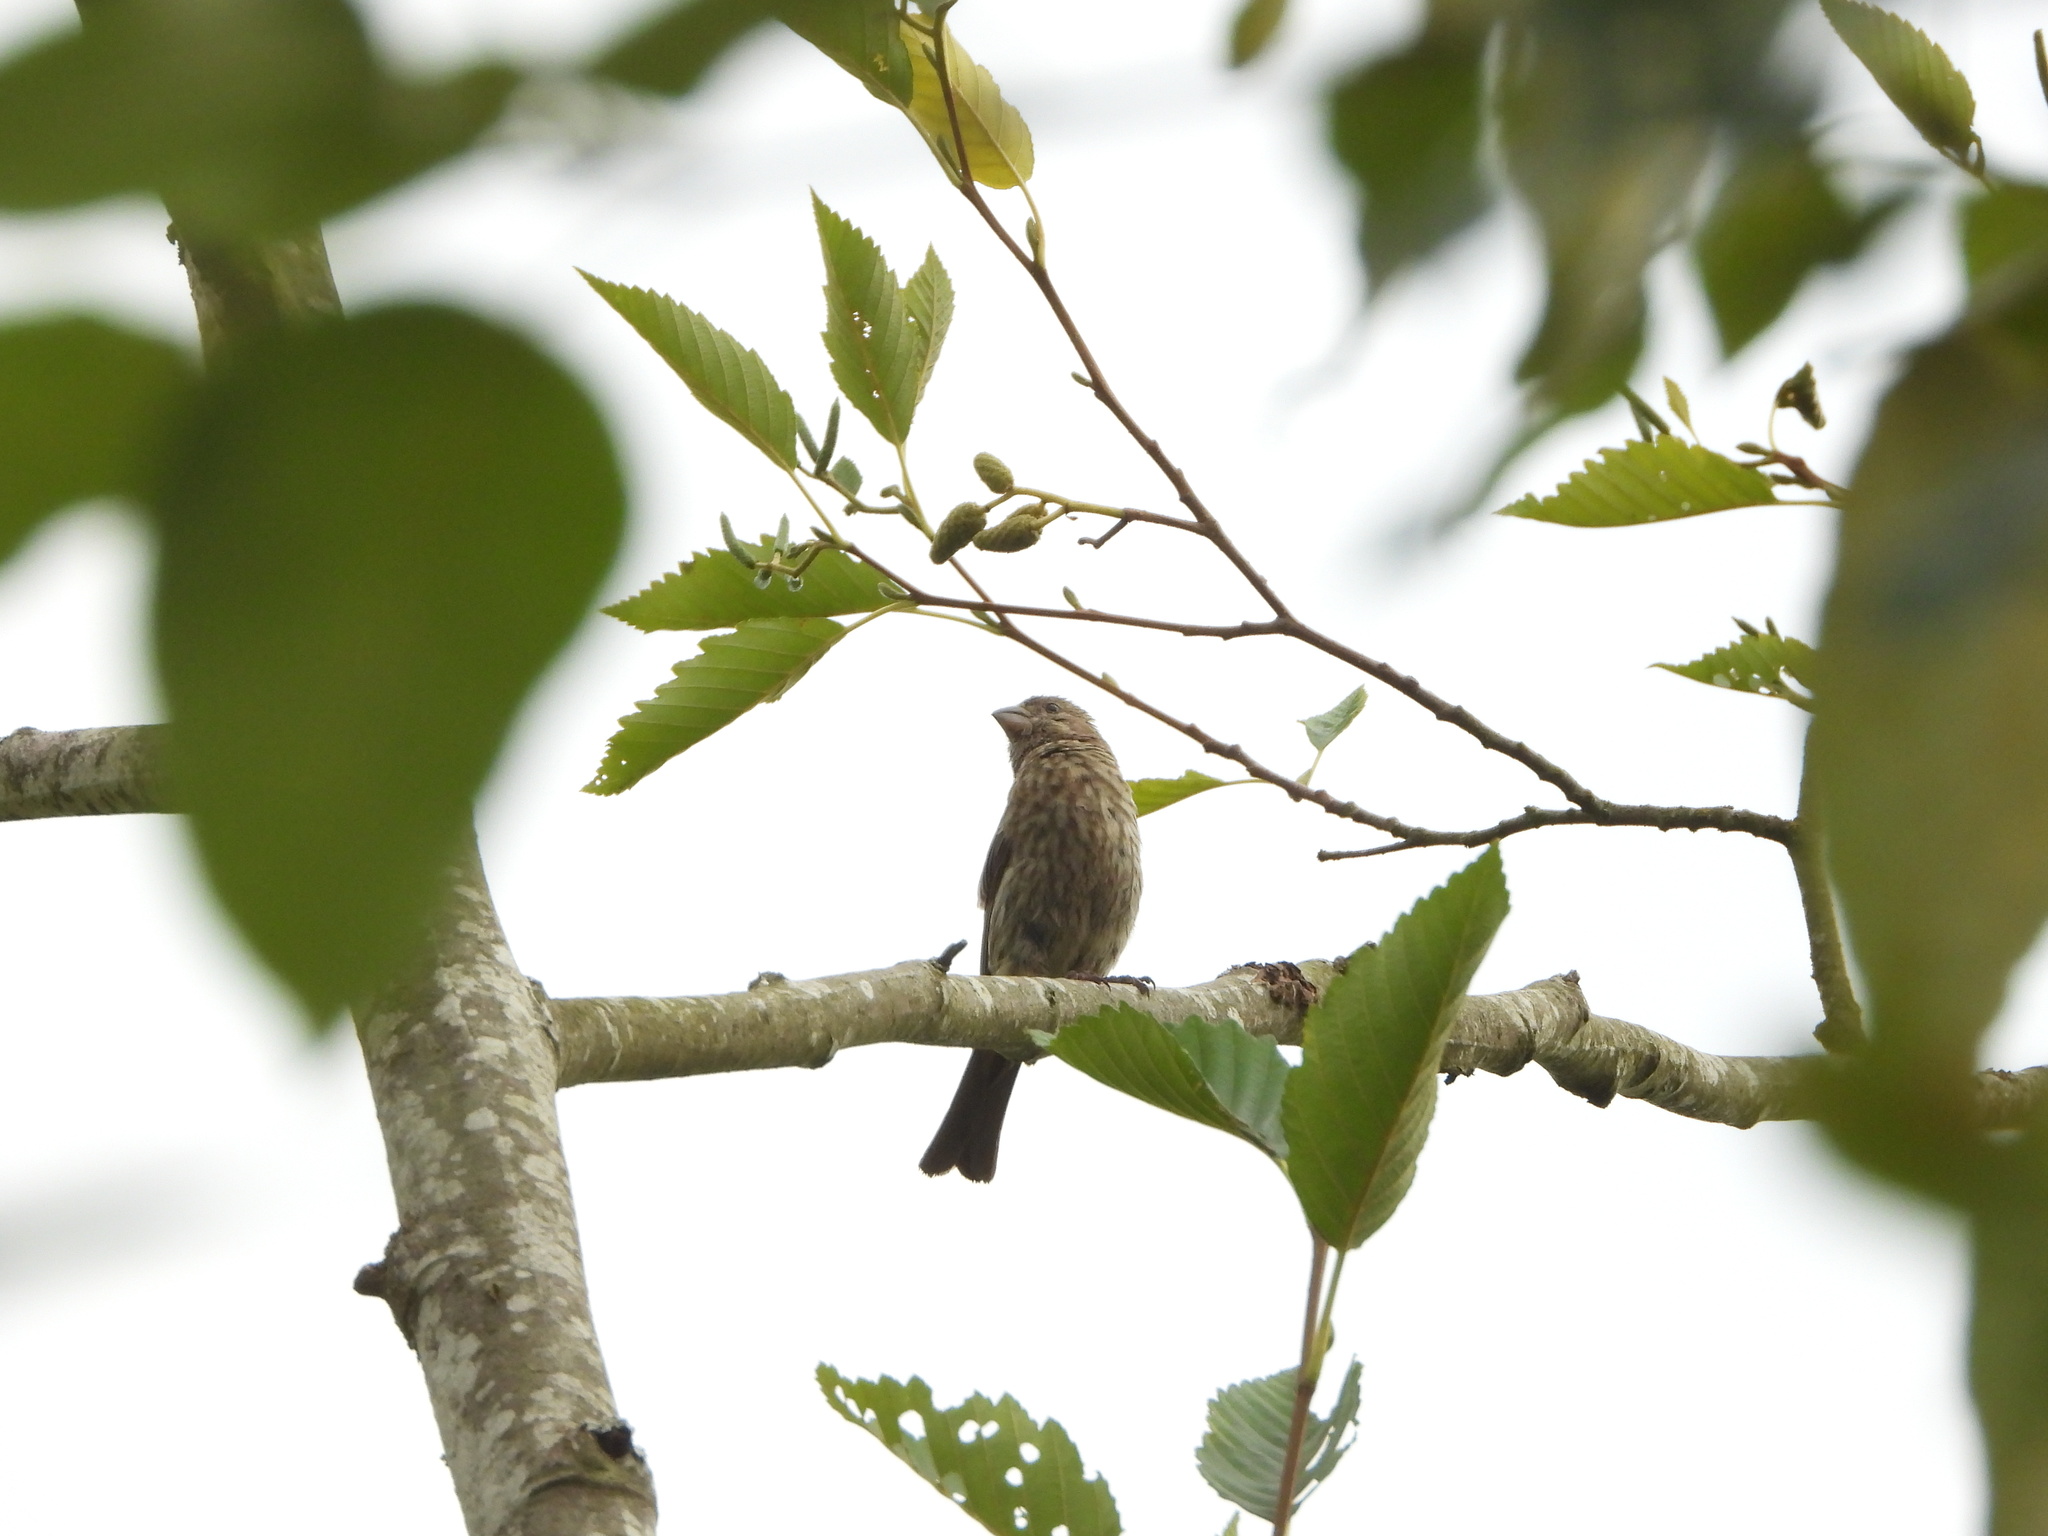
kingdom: Animalia
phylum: Chordata
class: Aves
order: Passeriformes
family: Fringillidae
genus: Haemorhous
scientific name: Haemorhous mexicanus
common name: House finch
